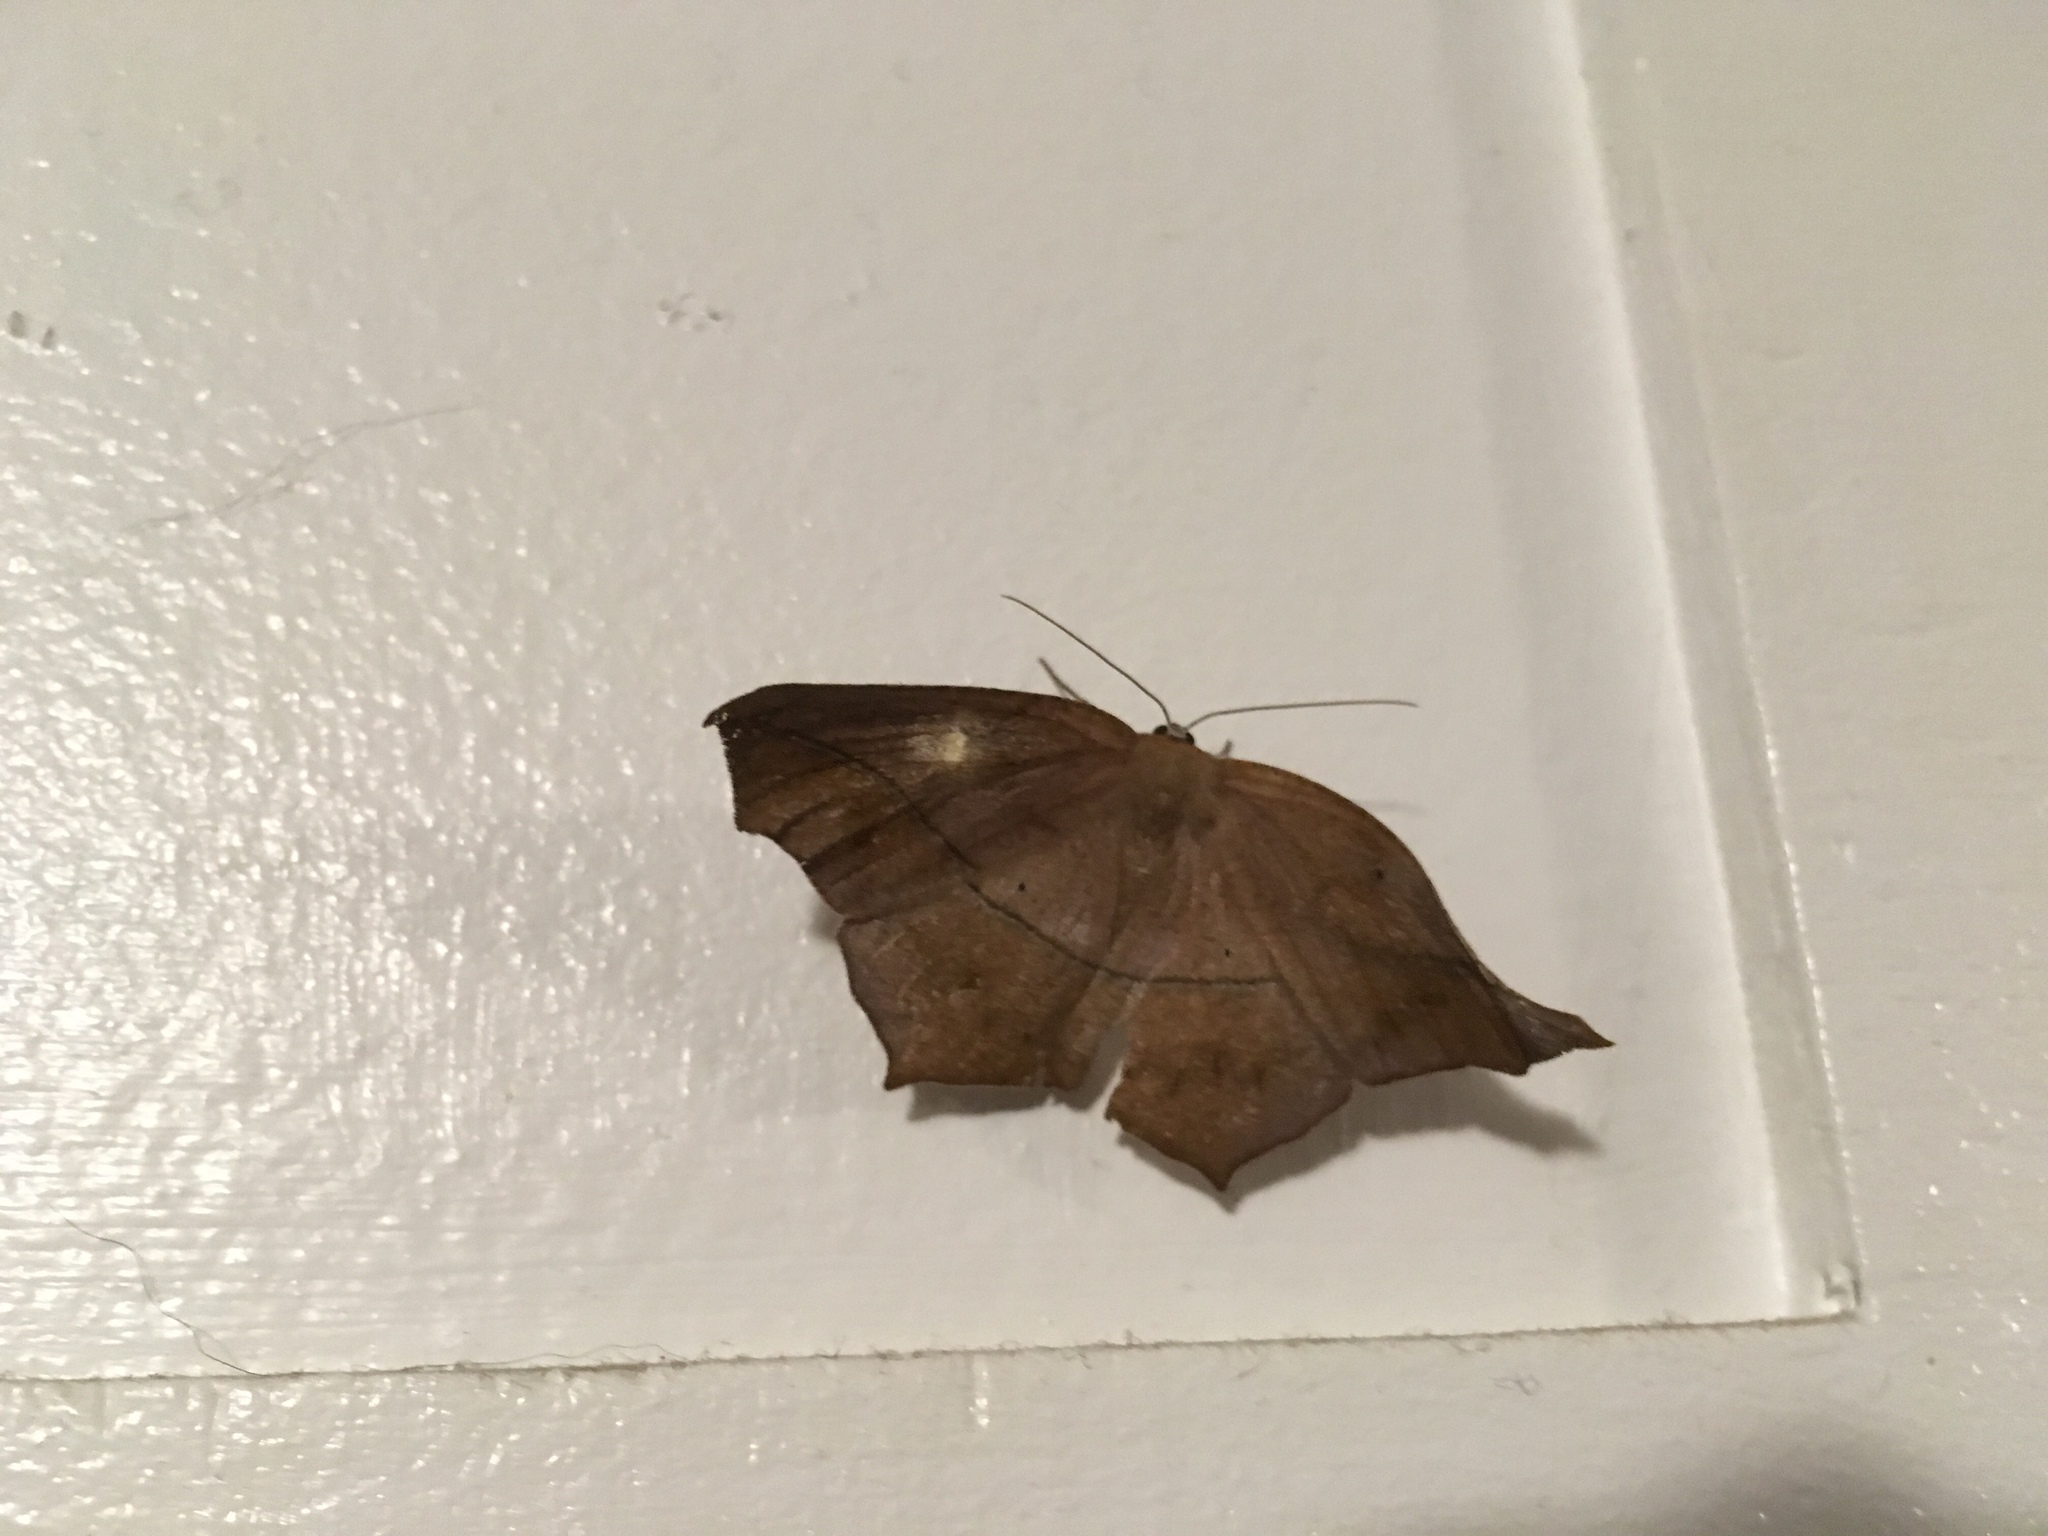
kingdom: Animalia
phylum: Arthropoda
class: Insecta
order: Lepidoptera
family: Geometridae
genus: Prochoerodes
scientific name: Prochoerodes lineola
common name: Large maple spanworm
